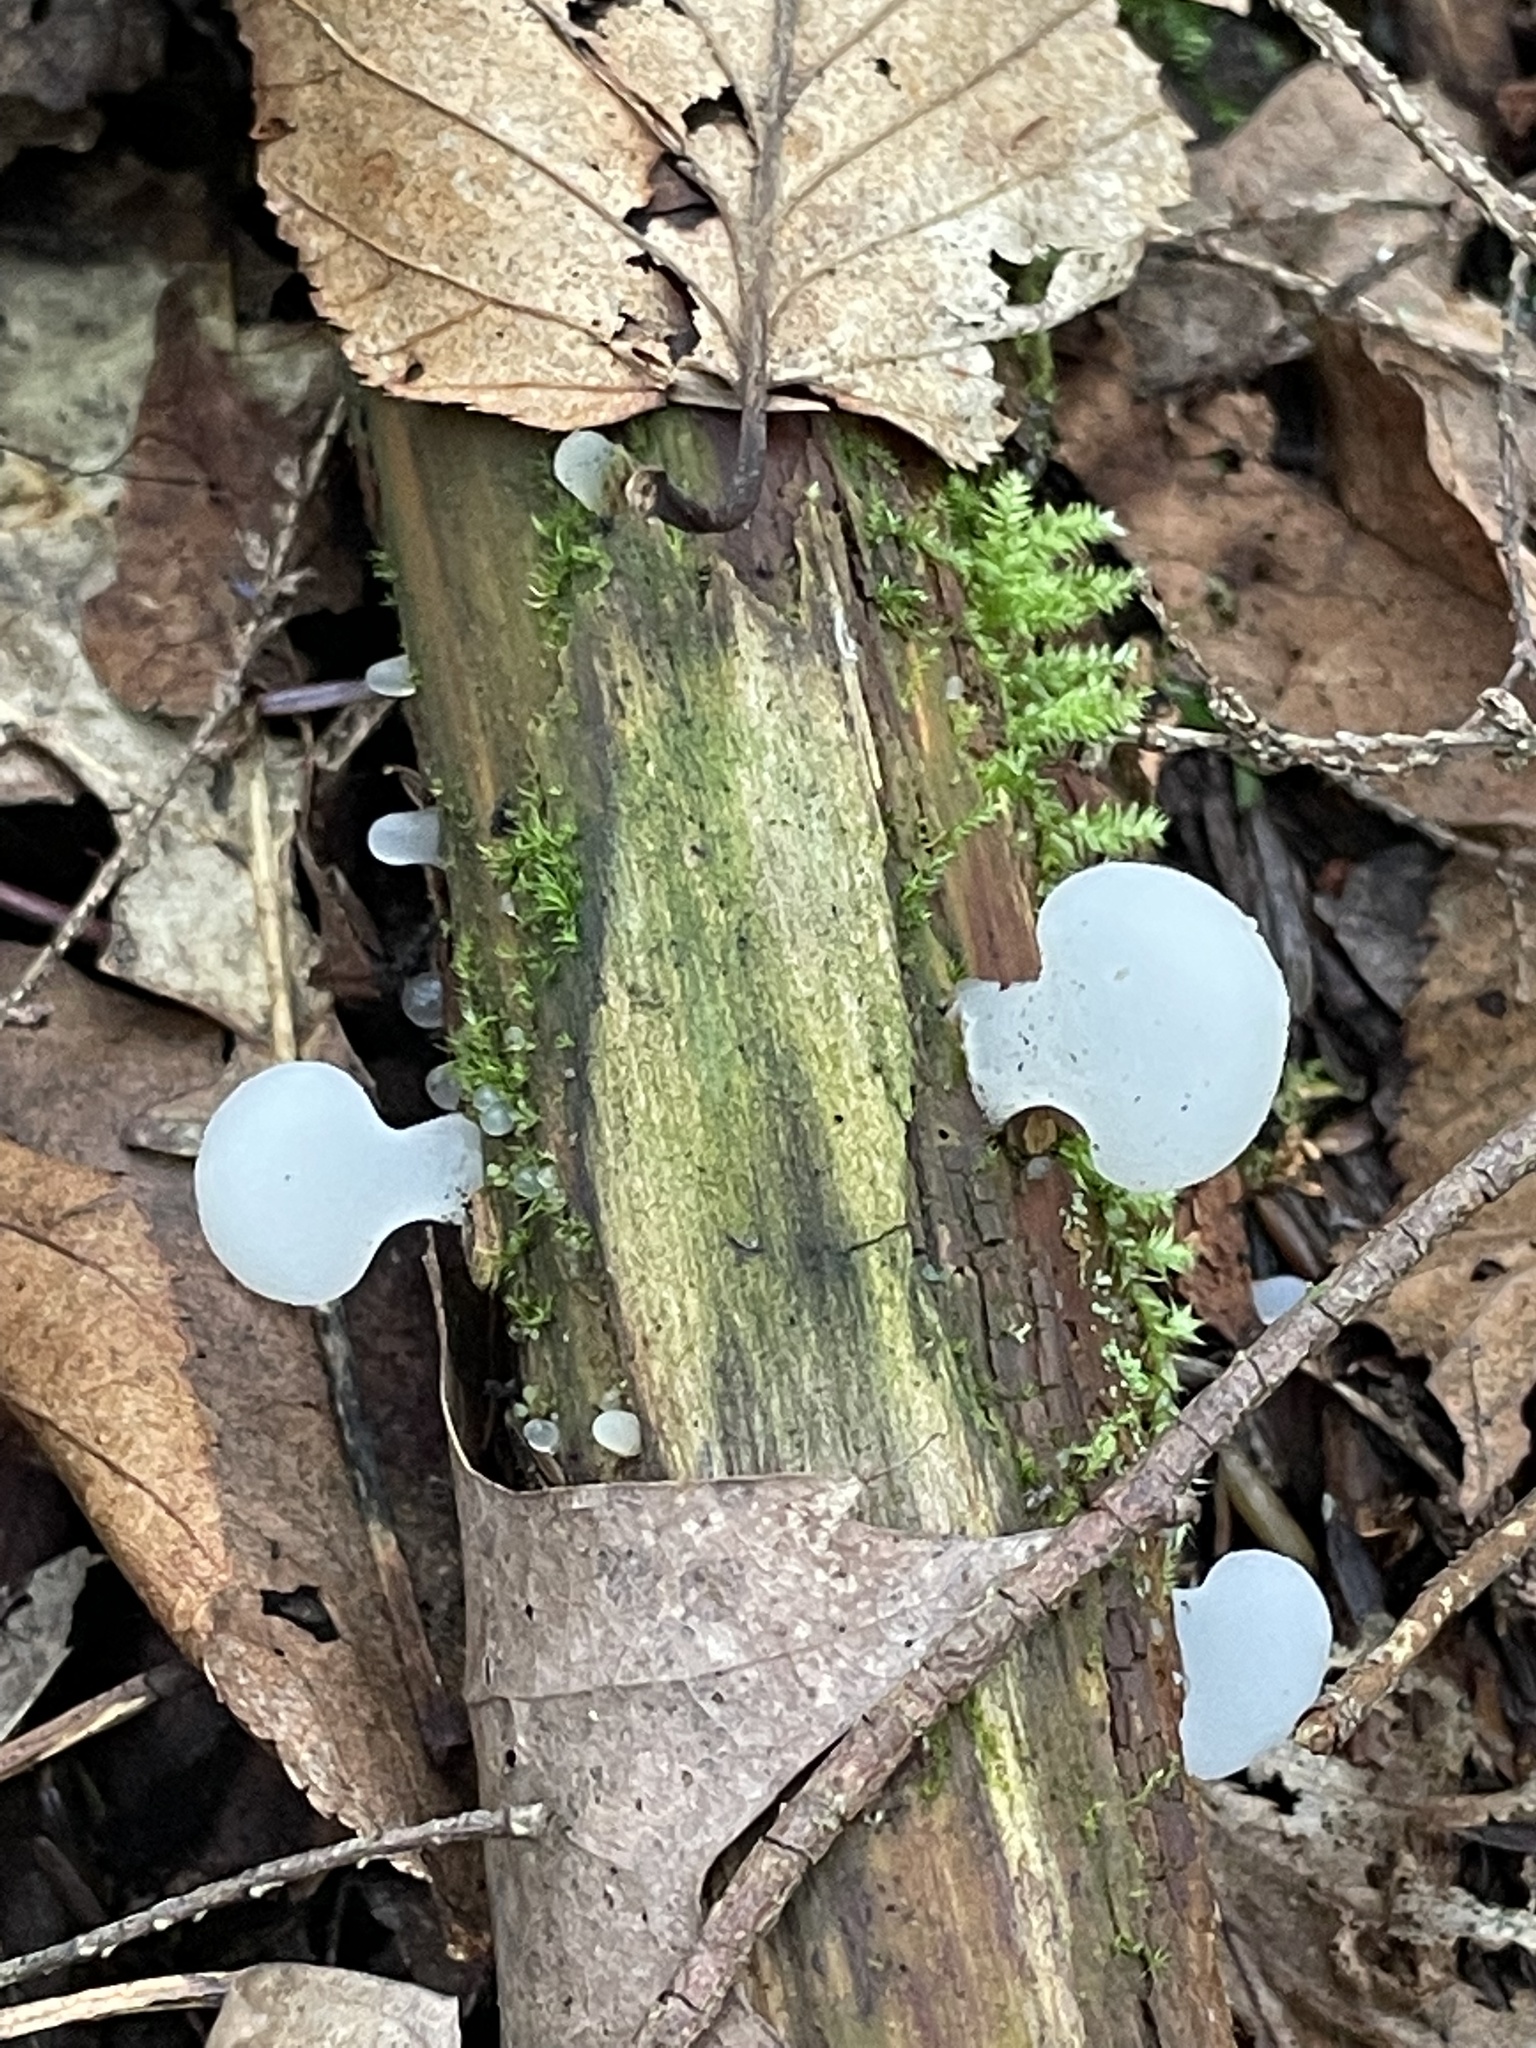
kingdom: Fungi
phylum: Basidiomycota
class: Agaricomycetes
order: Auriculariales
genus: Pseudohydnum
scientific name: Pseudohydnum gelatinosum
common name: Jelly tongue
